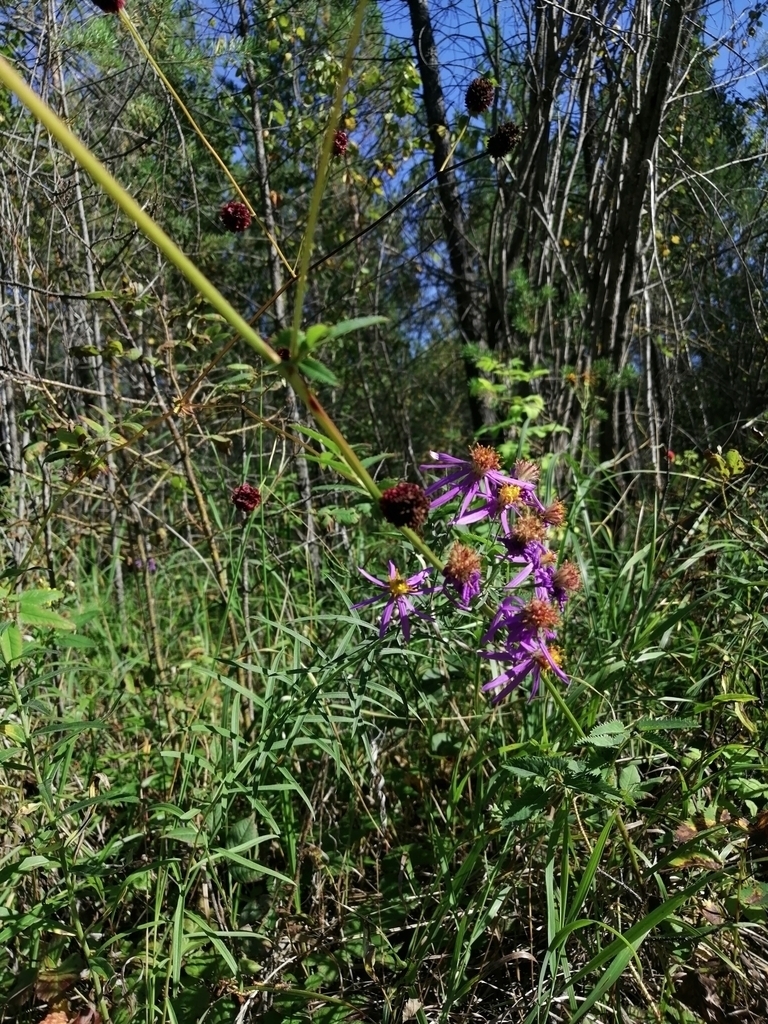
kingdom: Plantae
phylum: Tracheophyta
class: Magnoliopsida
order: Rosales
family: Rosaceae
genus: Sanguisorba
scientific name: Sanguisorba officinalis
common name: Great burnet
